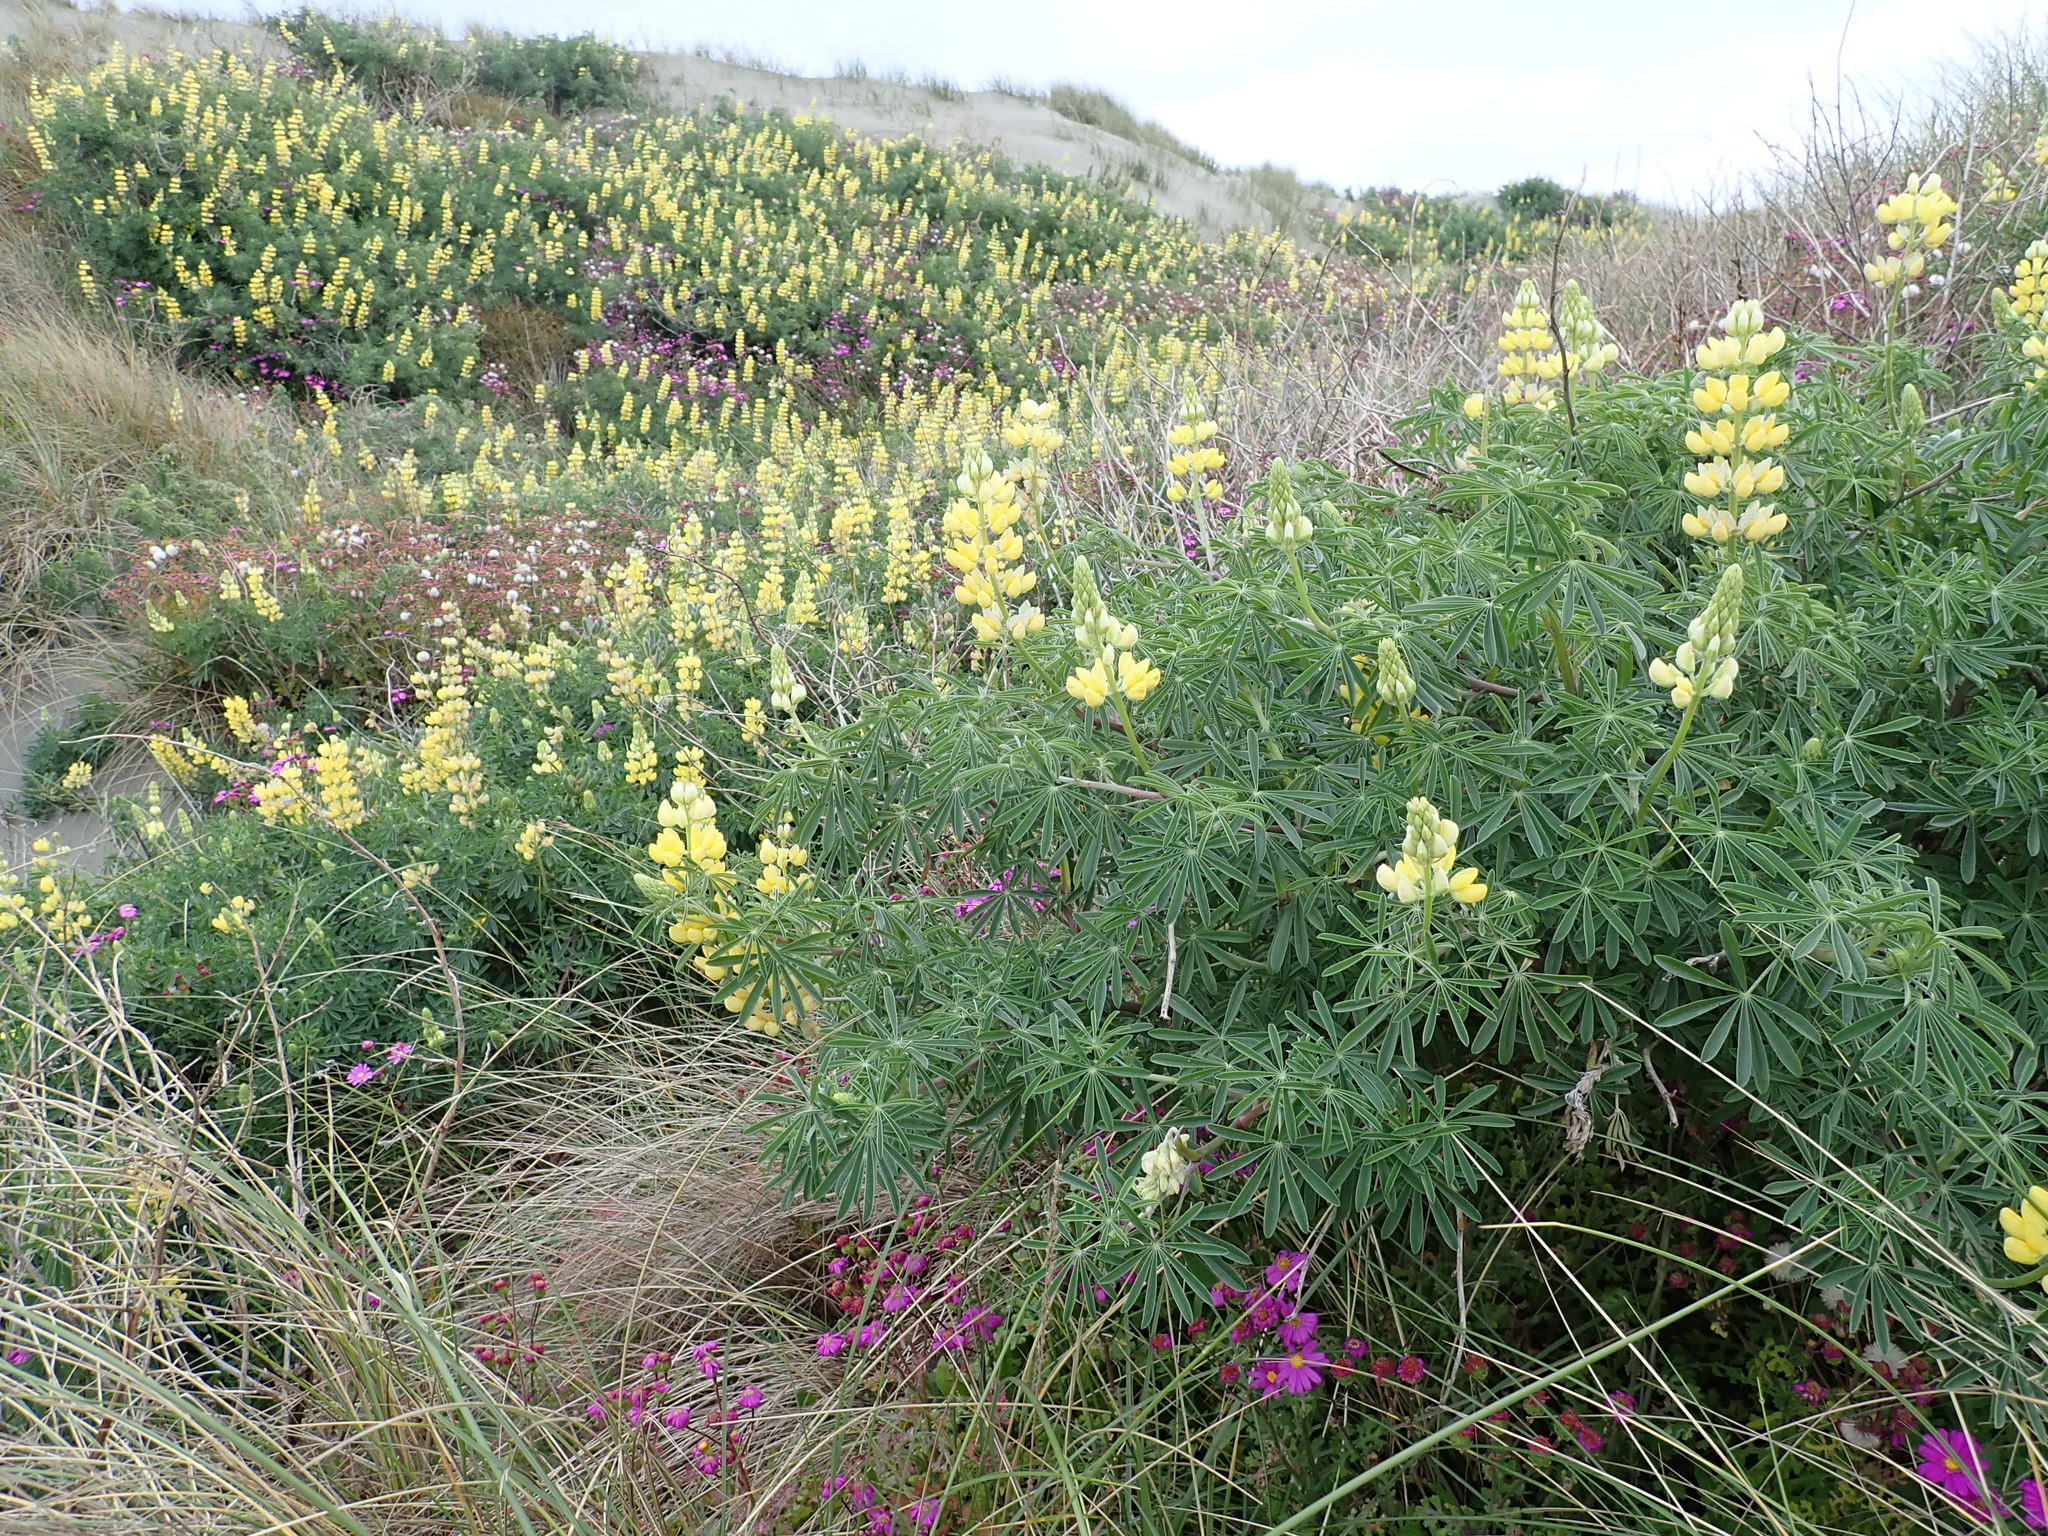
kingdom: Plantae
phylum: Tracheophyta
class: Magnoliopsida
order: Fabales
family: Fabaceae
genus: Lupinus
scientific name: Lupinus arboreus
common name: Yellow bush lupine
